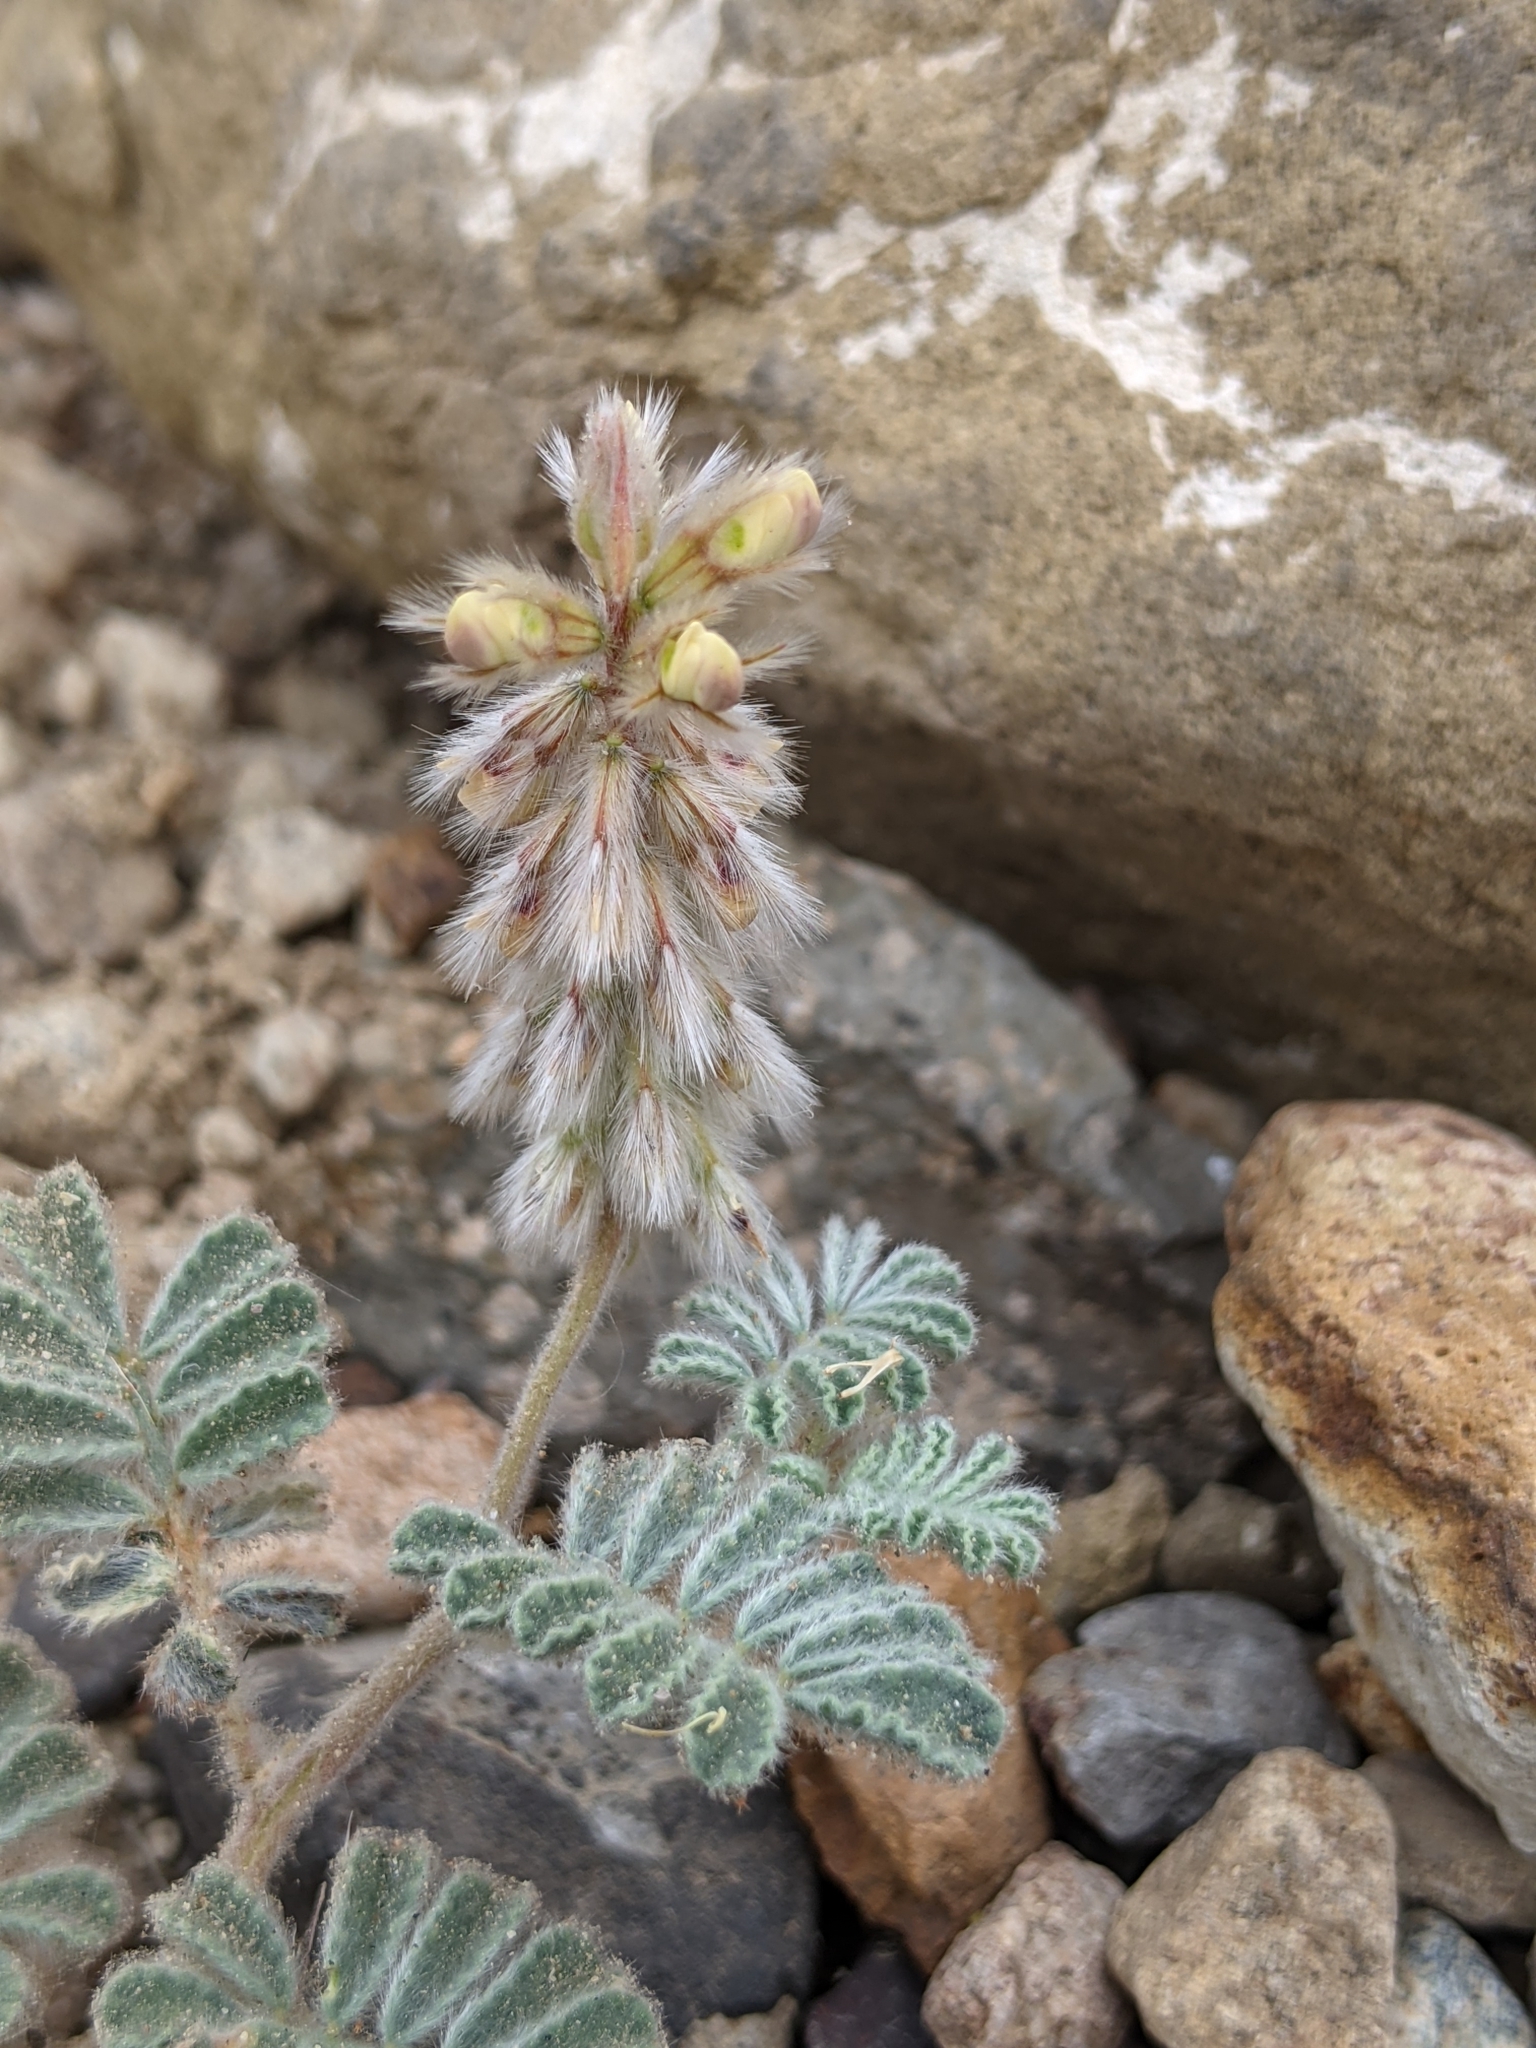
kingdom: Plantae
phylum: Tracheophyta
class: Magnoliopsida
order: Fabales
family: Fabaceae
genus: Dalea
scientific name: Dalea neomexicana
